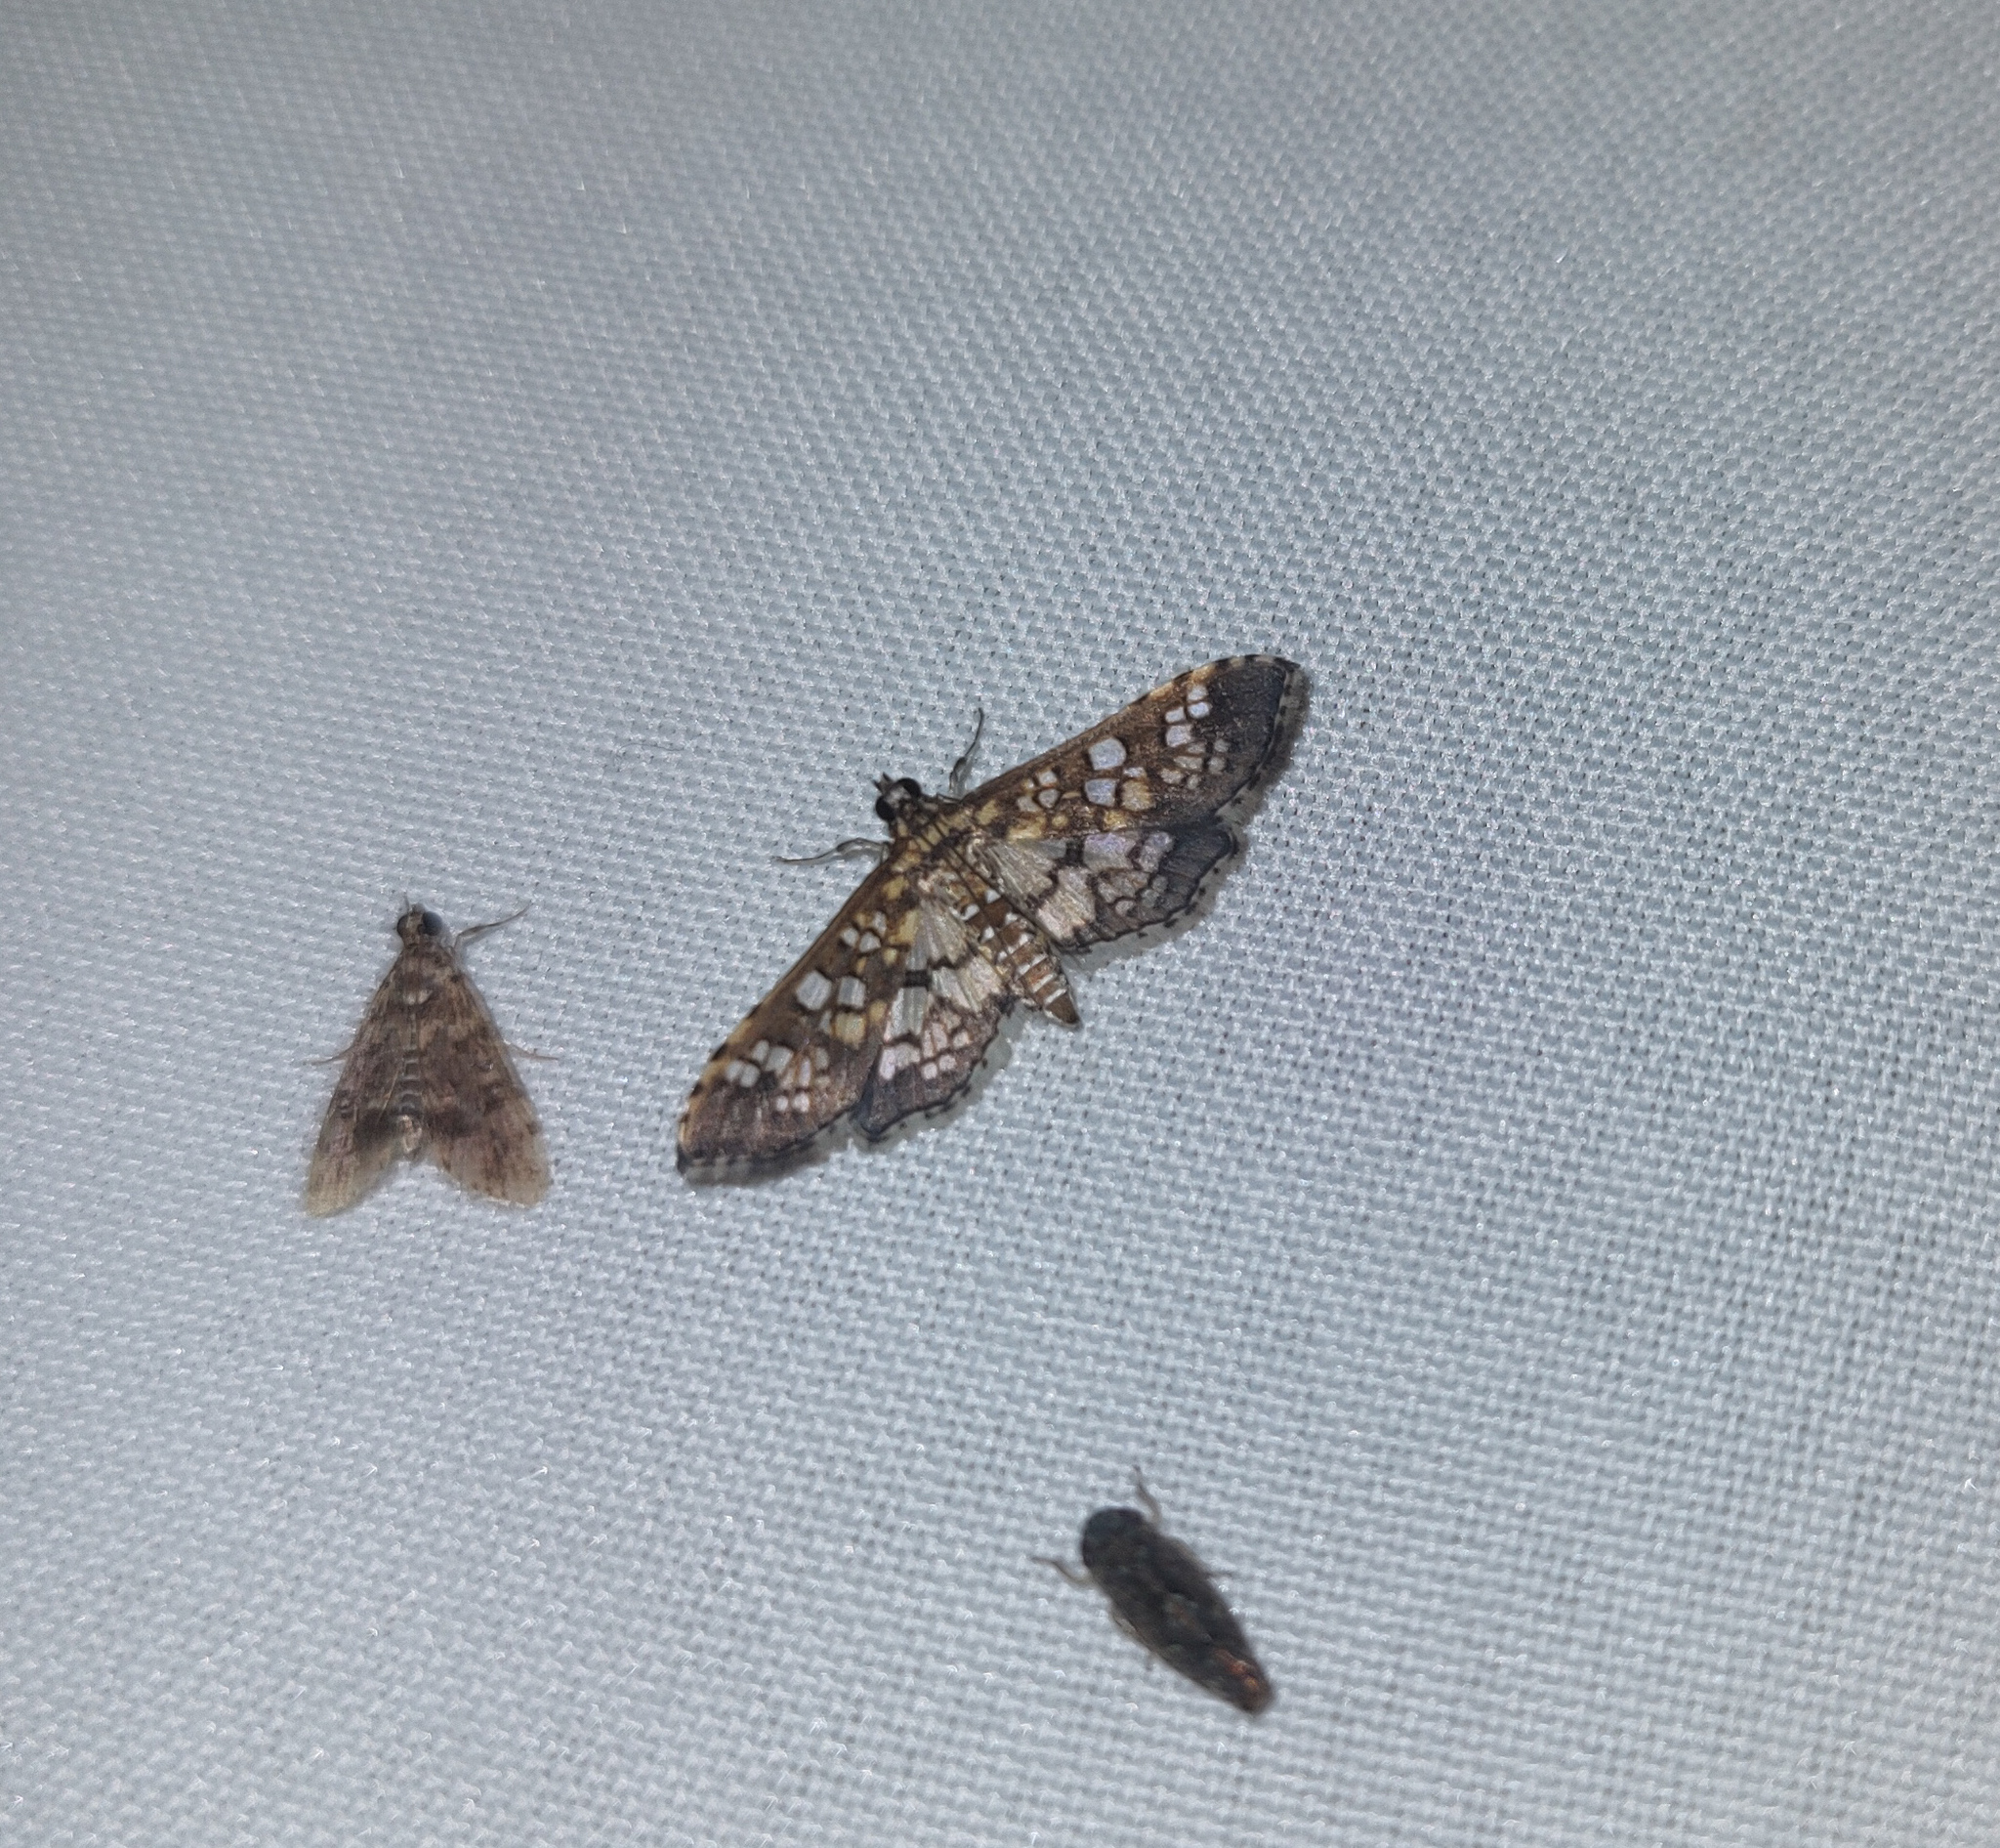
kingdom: Animalia
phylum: Arthropoda
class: Insecta
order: Lepidoptera
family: Crambidae
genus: Samea
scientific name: Samea ecclesialis
